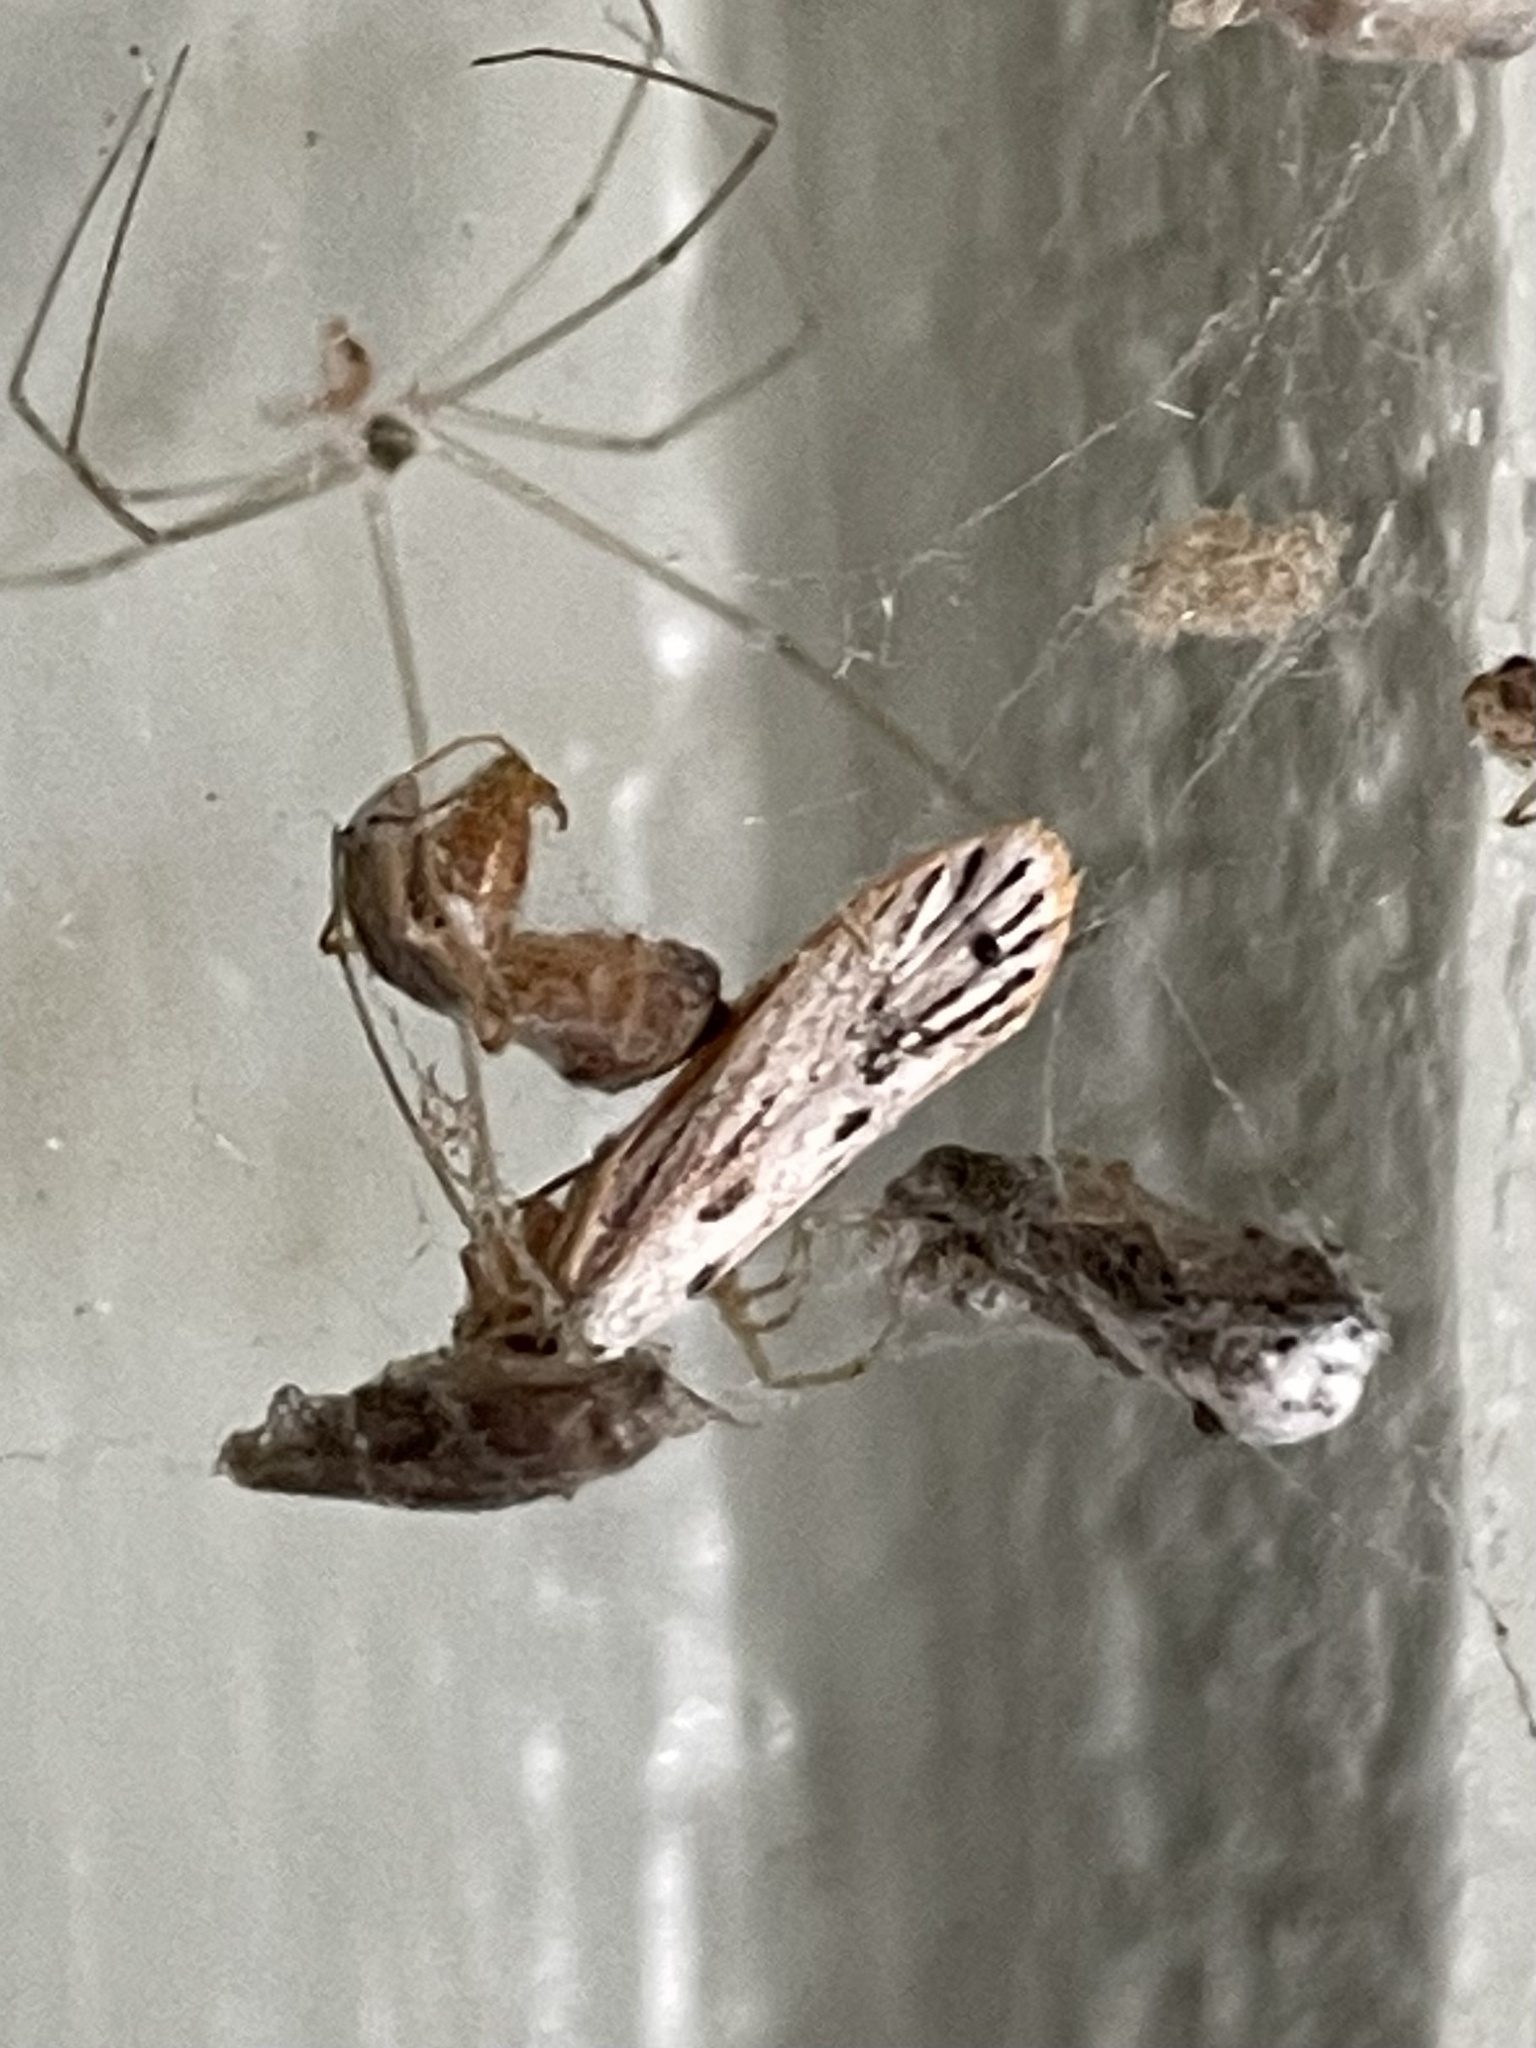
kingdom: Animalia
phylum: Arthropoda
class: Insecta
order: Lepidoptera
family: Lacturidae
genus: Lactura
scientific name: Lactura
